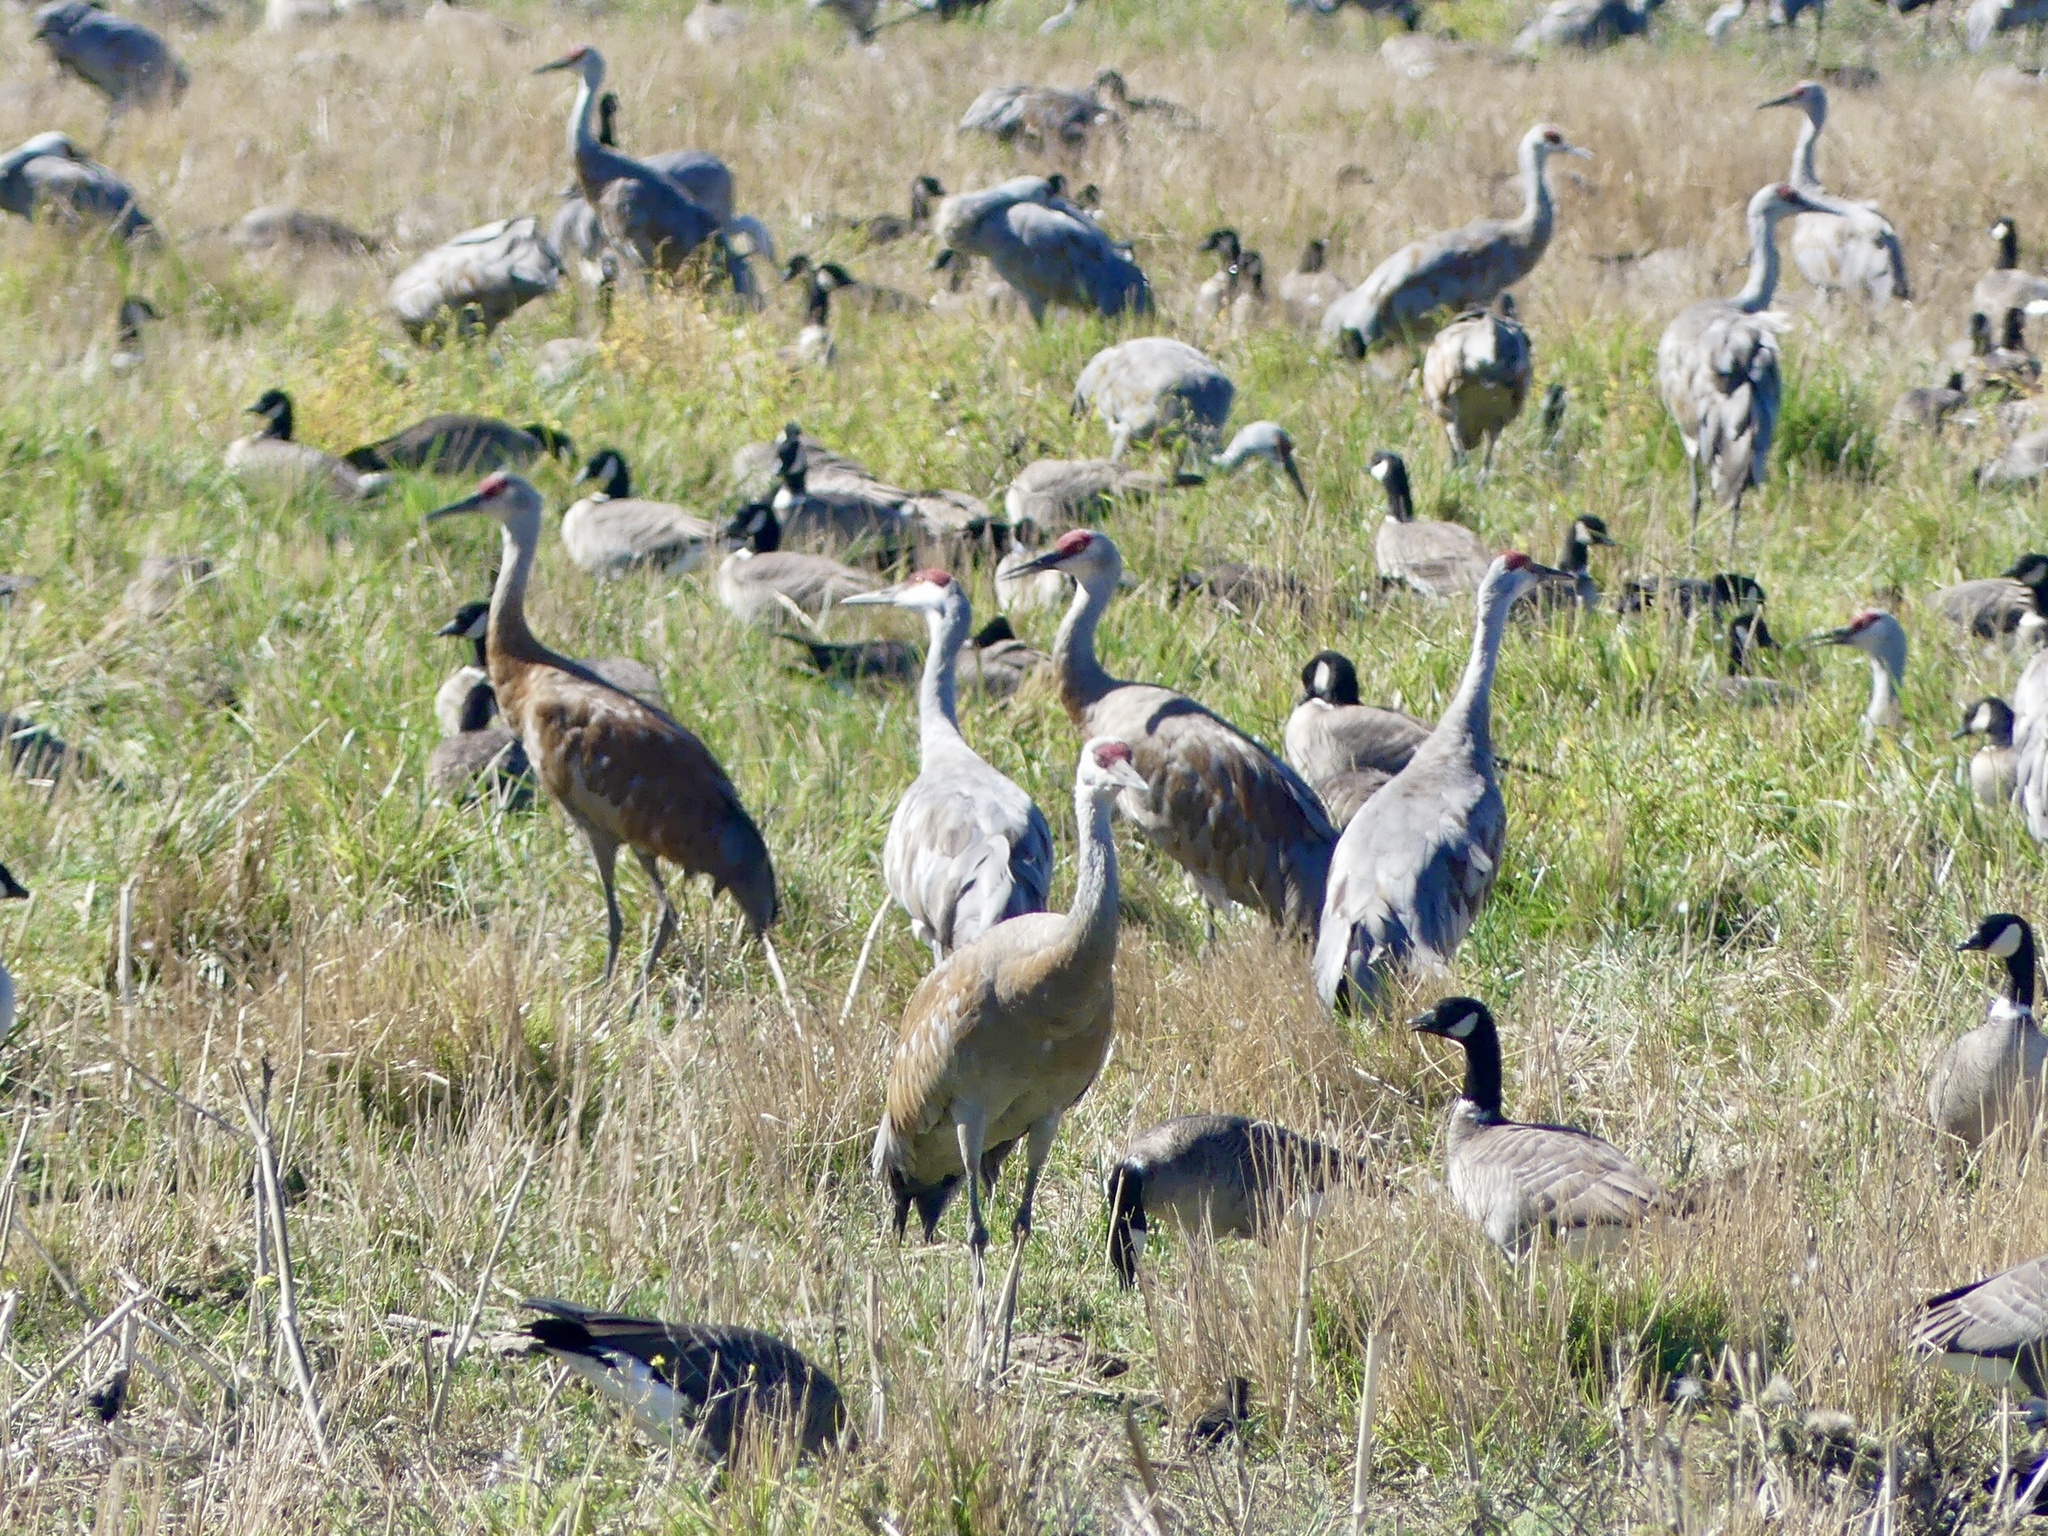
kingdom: Animalia
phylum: Chordata
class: Aves
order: Gruiformes
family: Gruidae
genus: Grus
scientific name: Grus canadensis
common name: Sandhill crane
